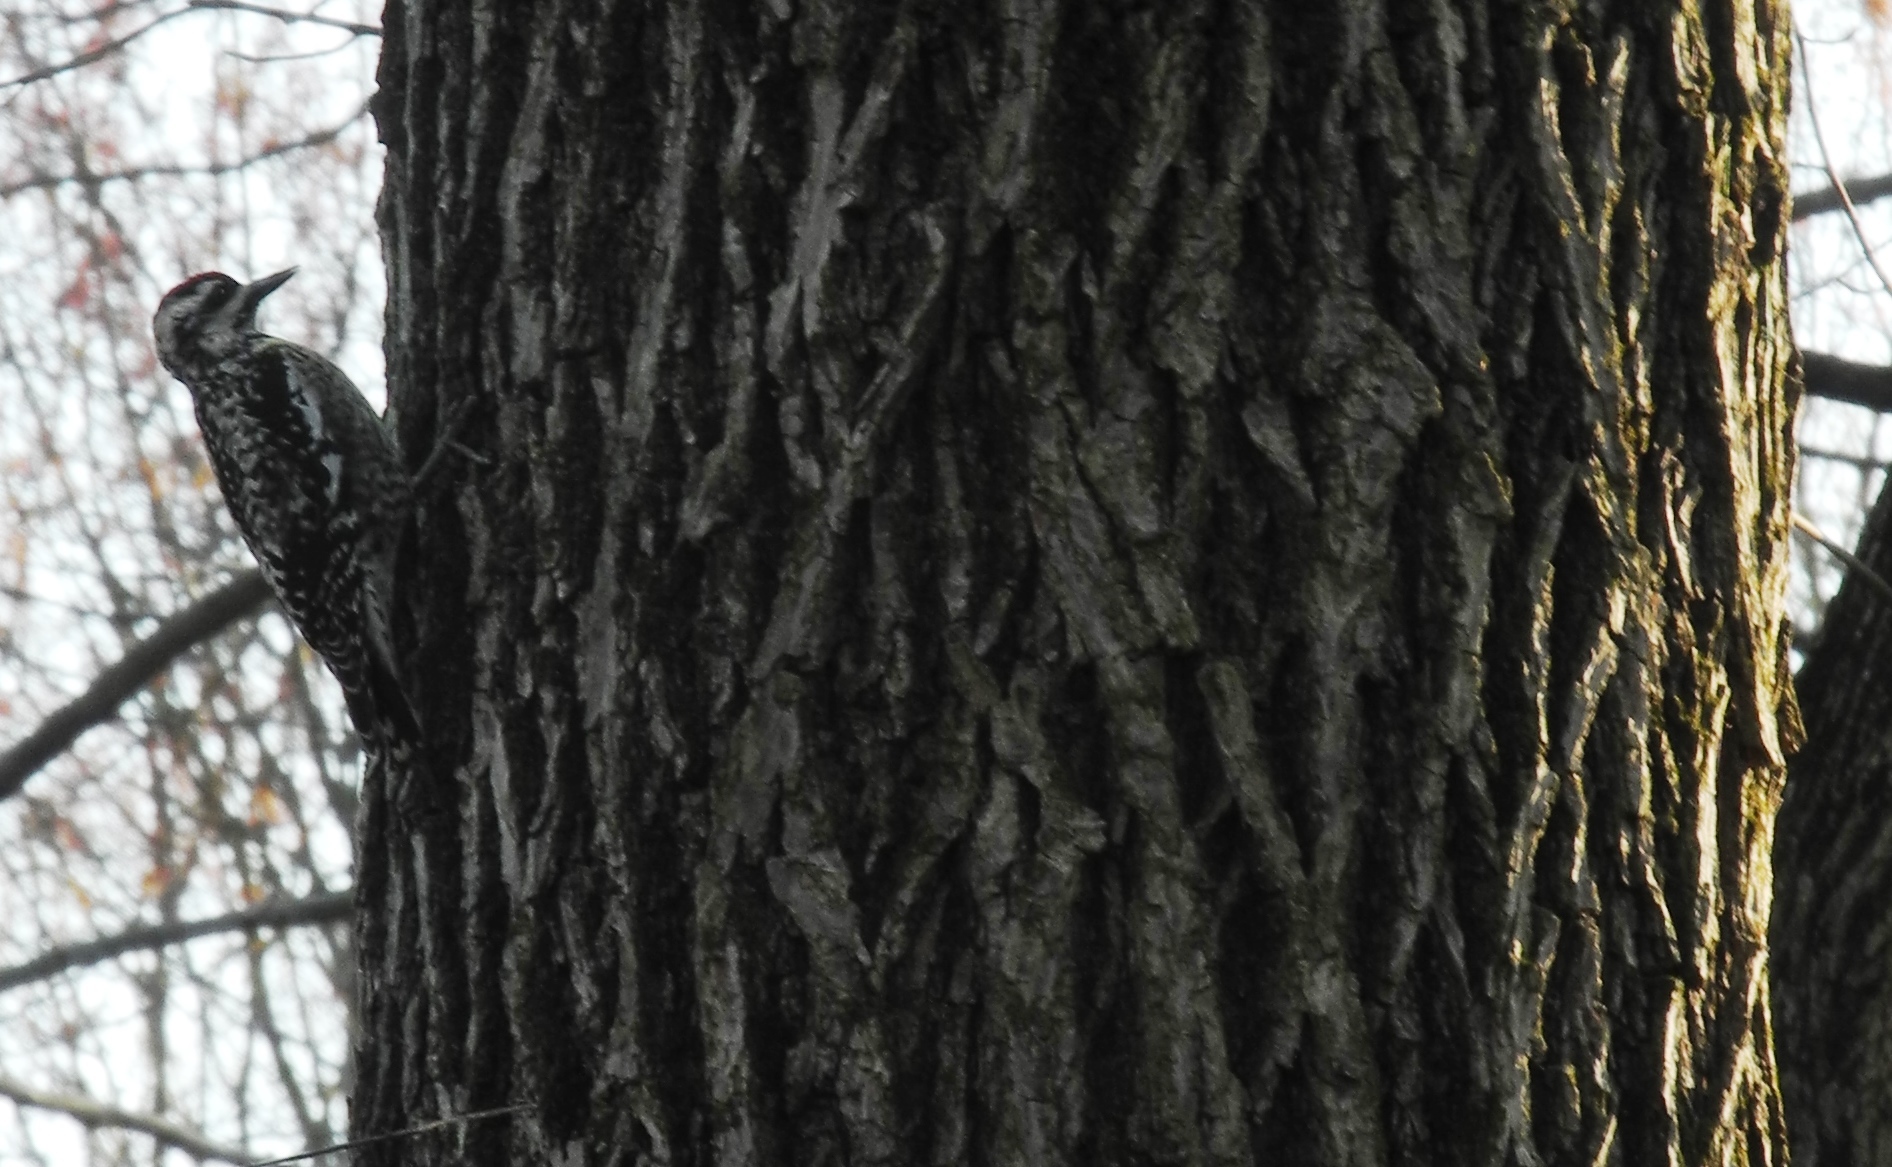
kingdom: Animalia
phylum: Chordata
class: Aves
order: Piciformes
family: Picidae
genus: Sphyrapicus
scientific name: Sphyrapicus varius
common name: Yellow-bellied sapsucker
